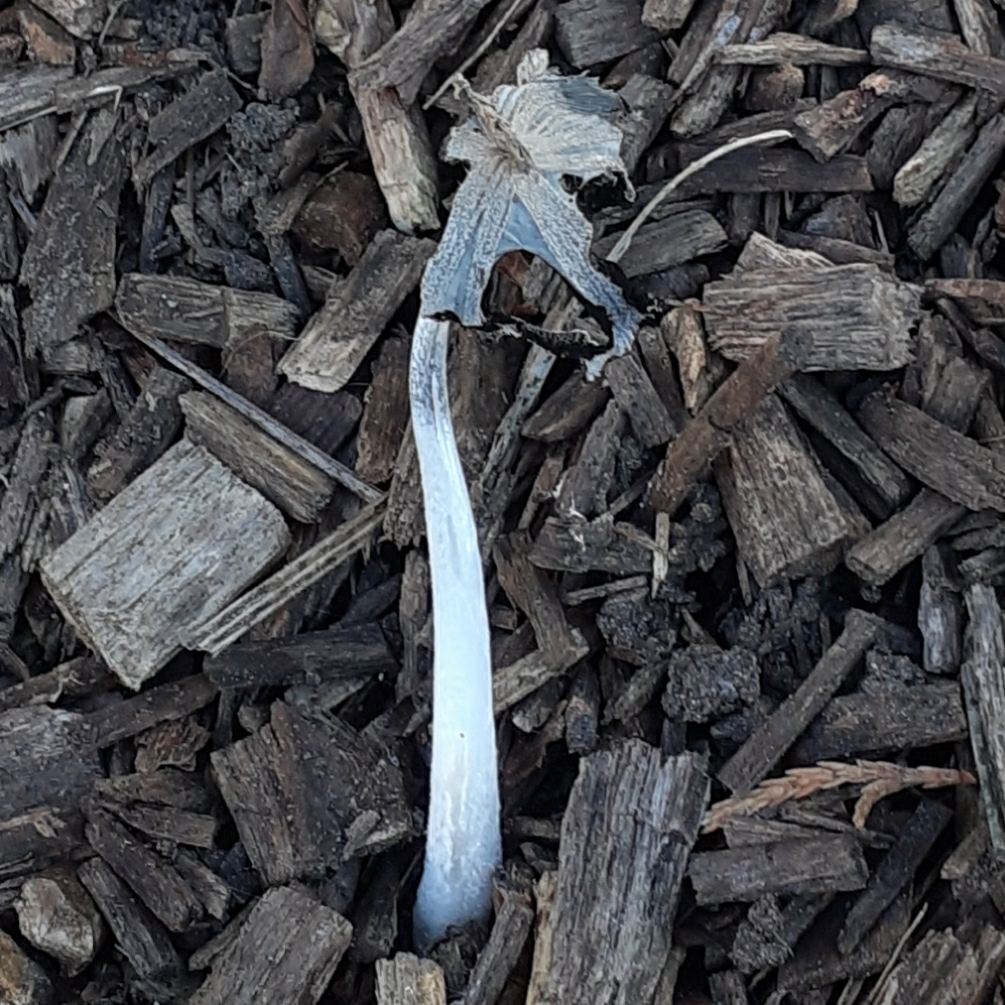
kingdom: Fungi
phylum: Basidiomycota
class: Agaricomycetes
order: Agaricales
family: Psathyrellaceae
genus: Coprinopsis
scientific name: Coprinopsis
